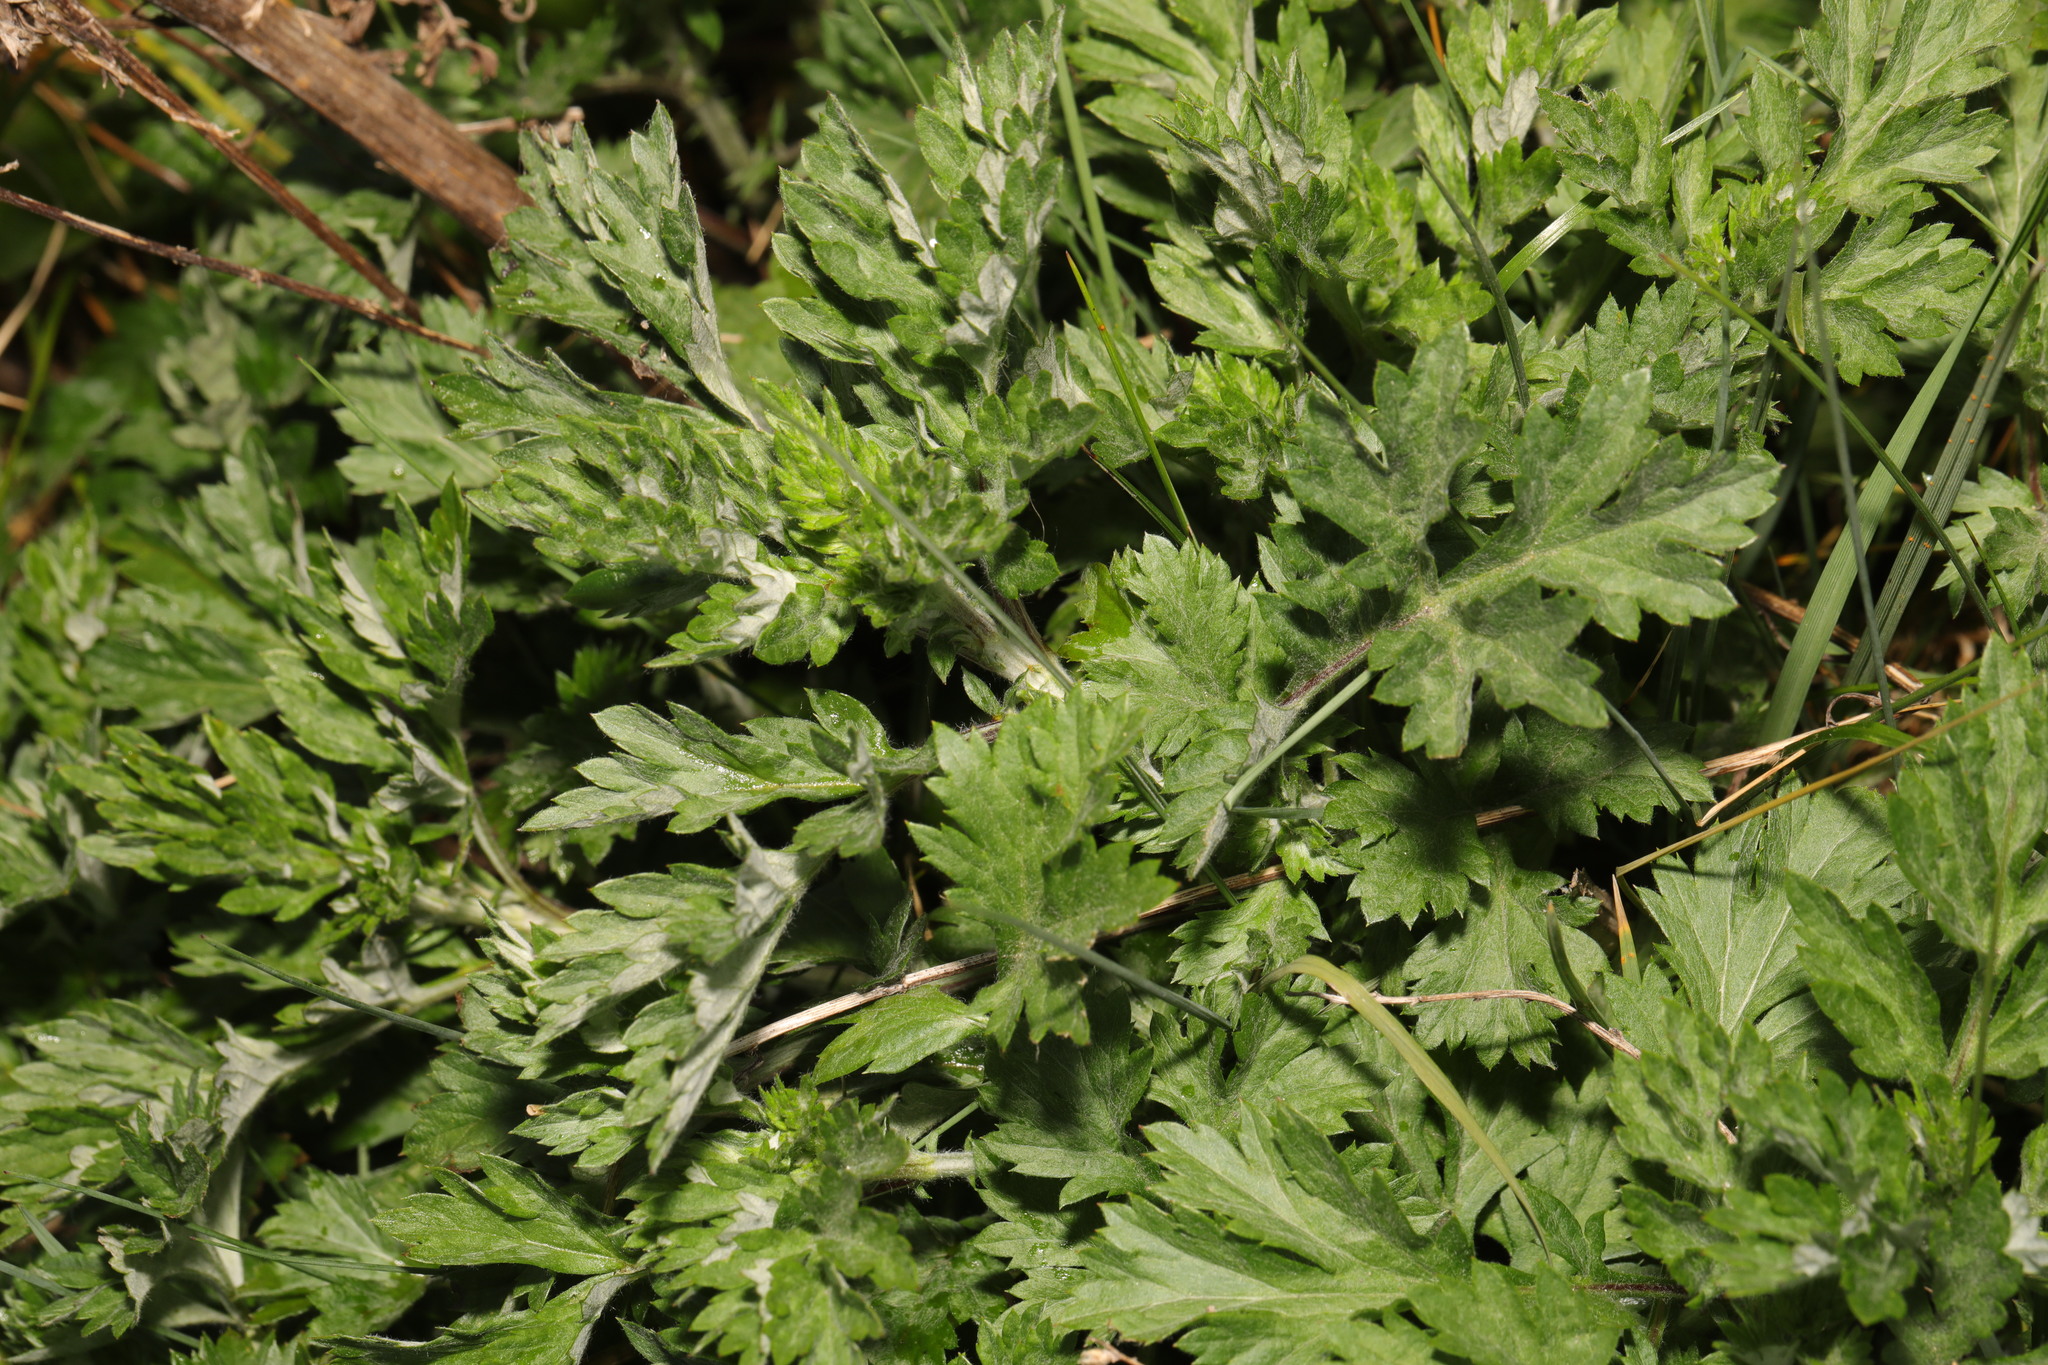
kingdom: Plantae
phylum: Tracheophyta
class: Magnoliopsida
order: Asterales
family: Asteraceae
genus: Artemisia
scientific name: Artemisia vulgaris
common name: Mugwort
